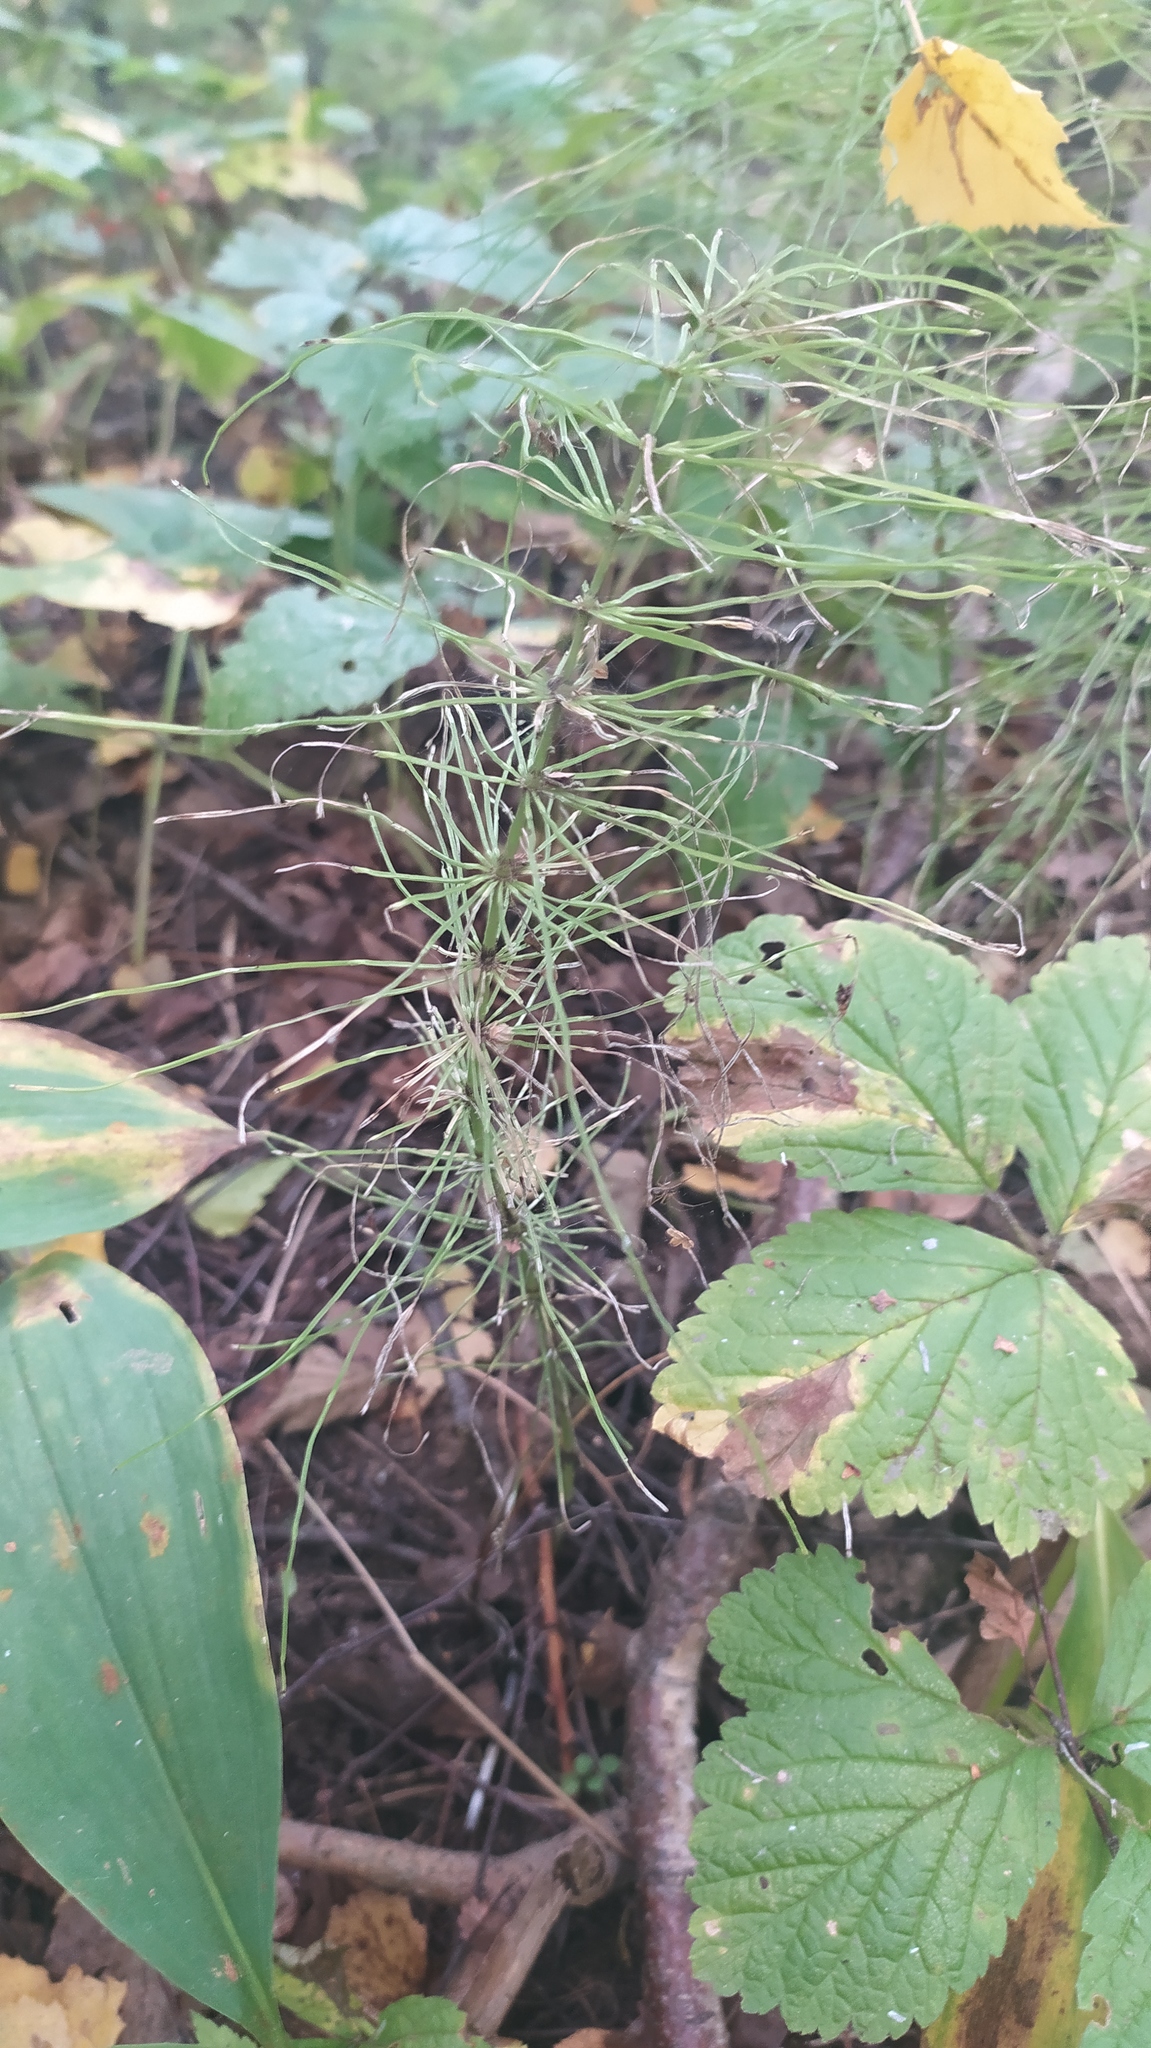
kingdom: Plantae
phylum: Tracheophyta
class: Polypodiopsida
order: Equisetales
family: Equisetaceae
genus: Equisetum
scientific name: Equisetum pratense
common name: Meadow horsetail
